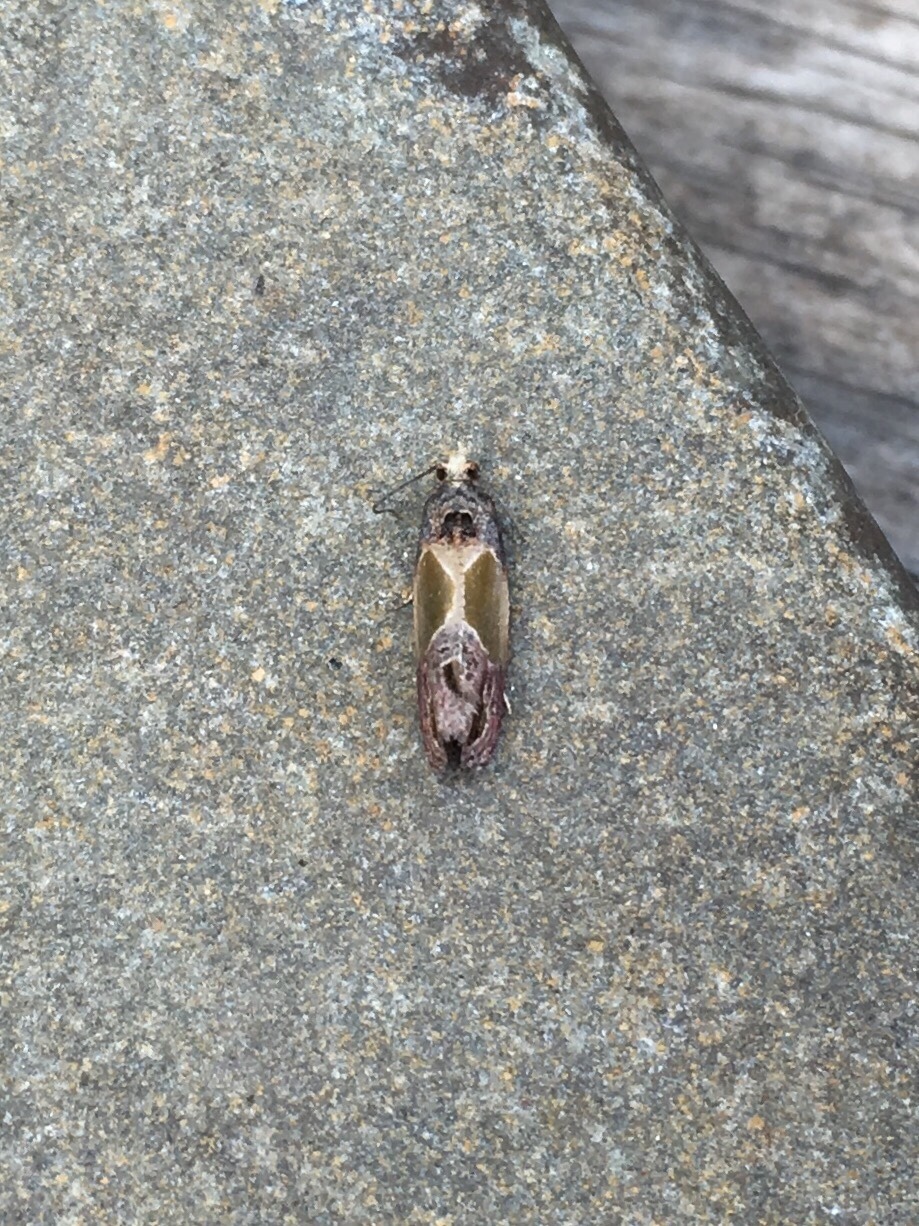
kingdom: Animalia
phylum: Arthropoda
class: Insecta
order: Lepidoptera
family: Tortricidae
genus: Eumarozia
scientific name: Eumarozia malachitana
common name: Sculptured moth
